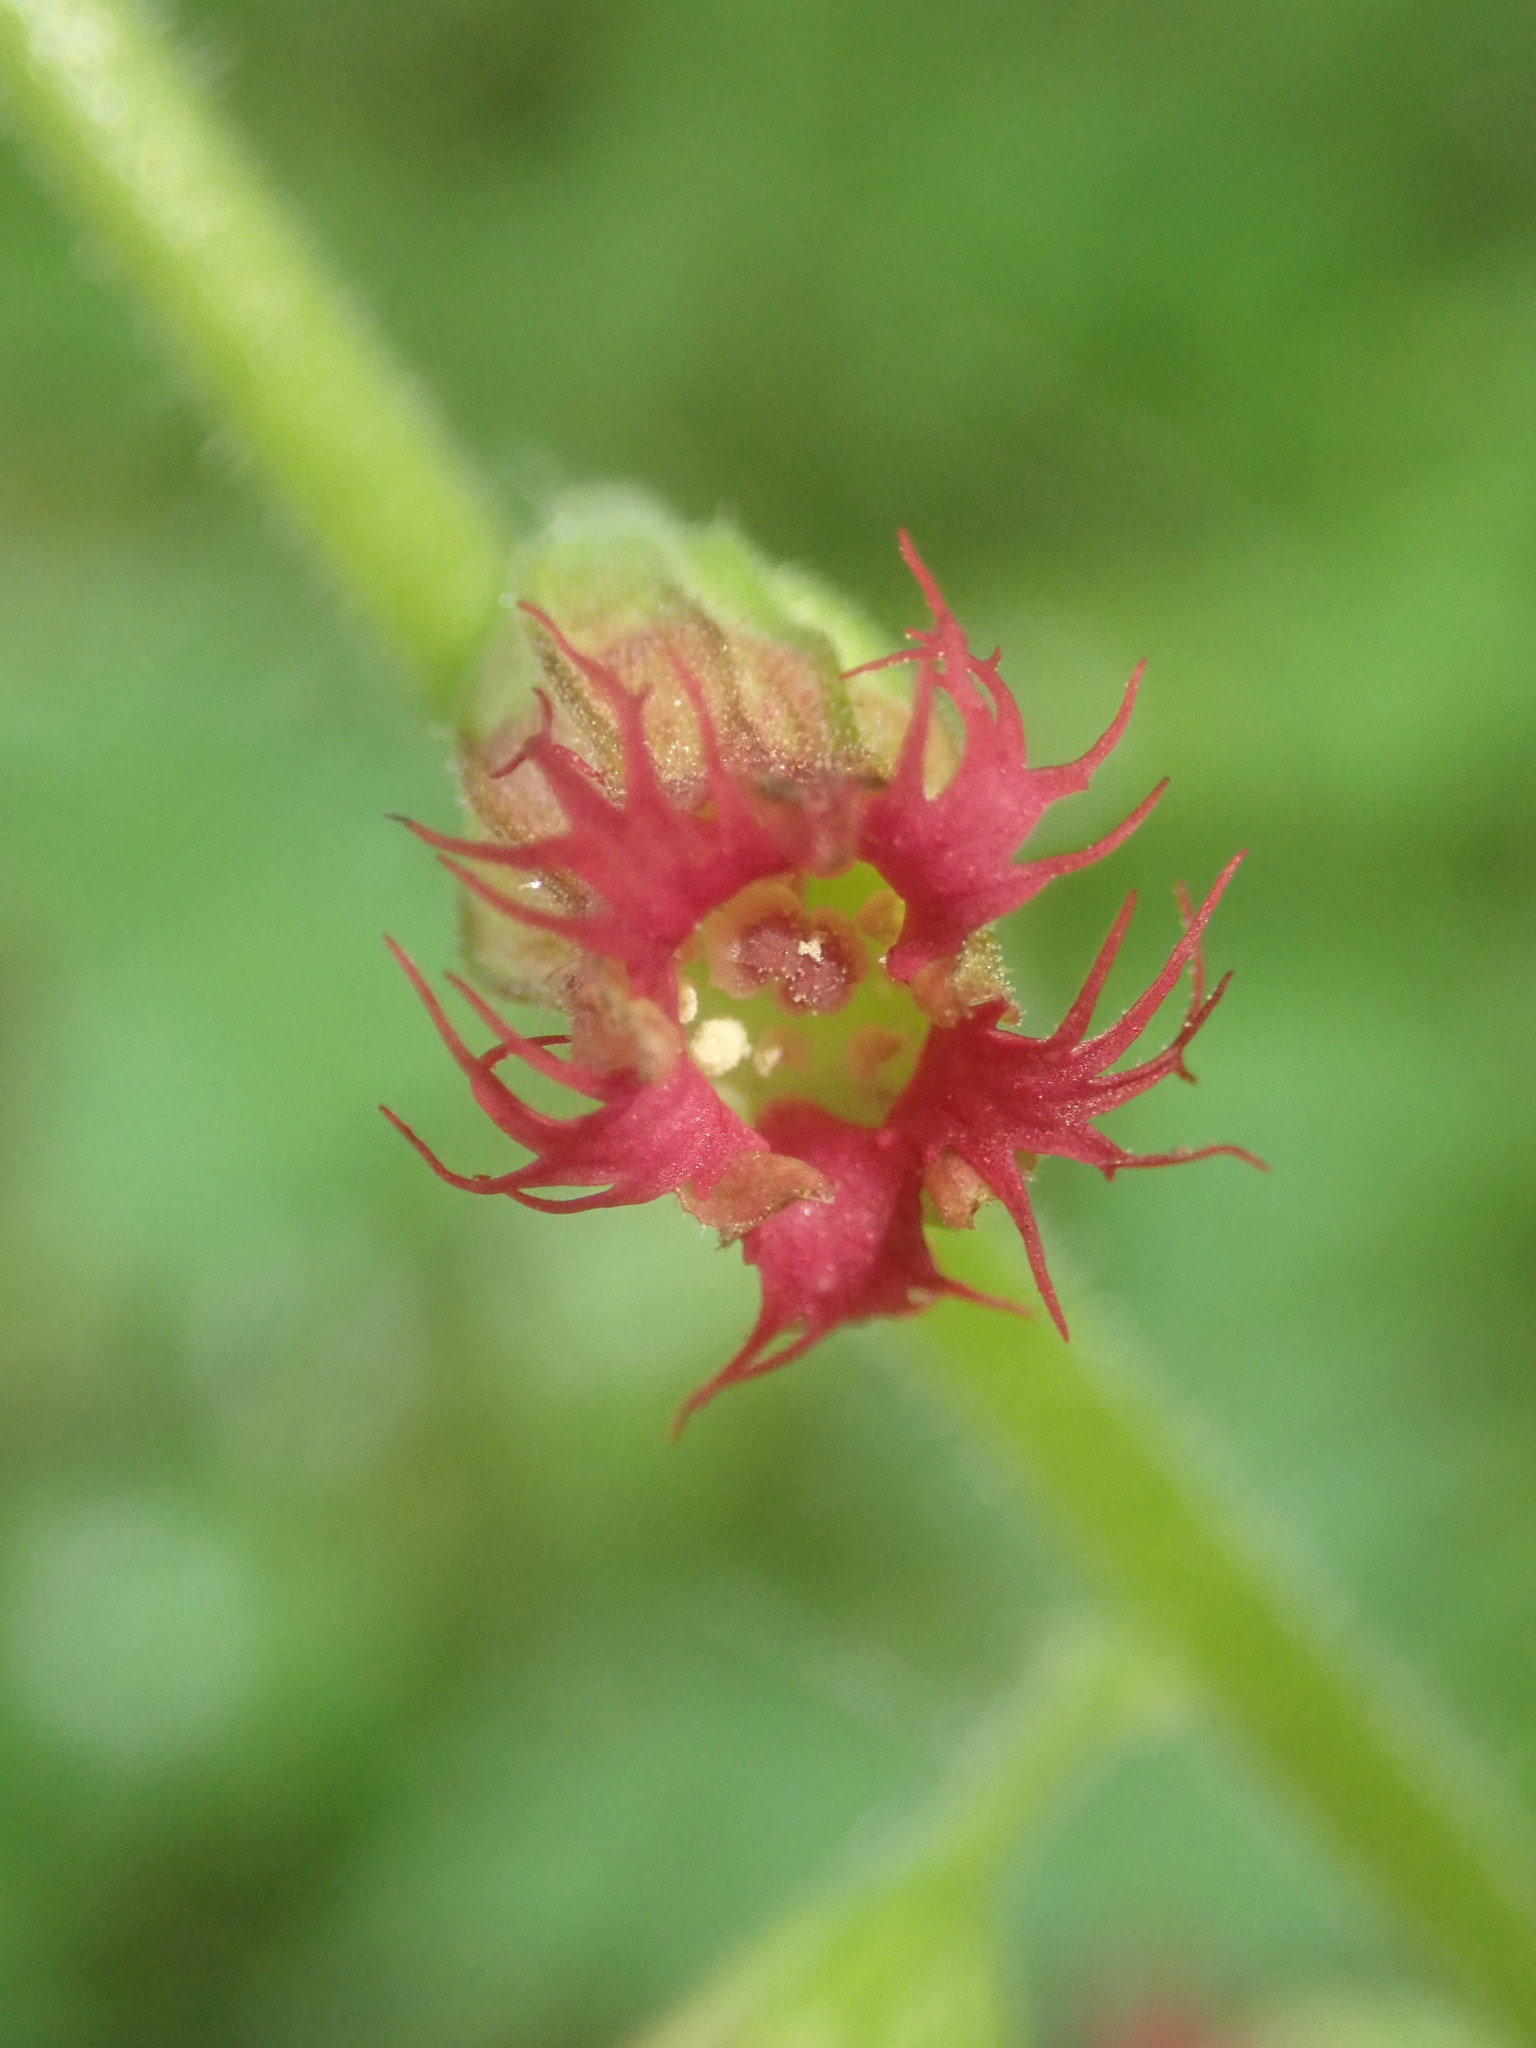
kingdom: Plantae
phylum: Tracheophyta
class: Magnoliopsida
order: Saxifragales
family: Saxifragaceae
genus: Tellima
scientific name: Tellima grandiflora
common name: Fringecups
